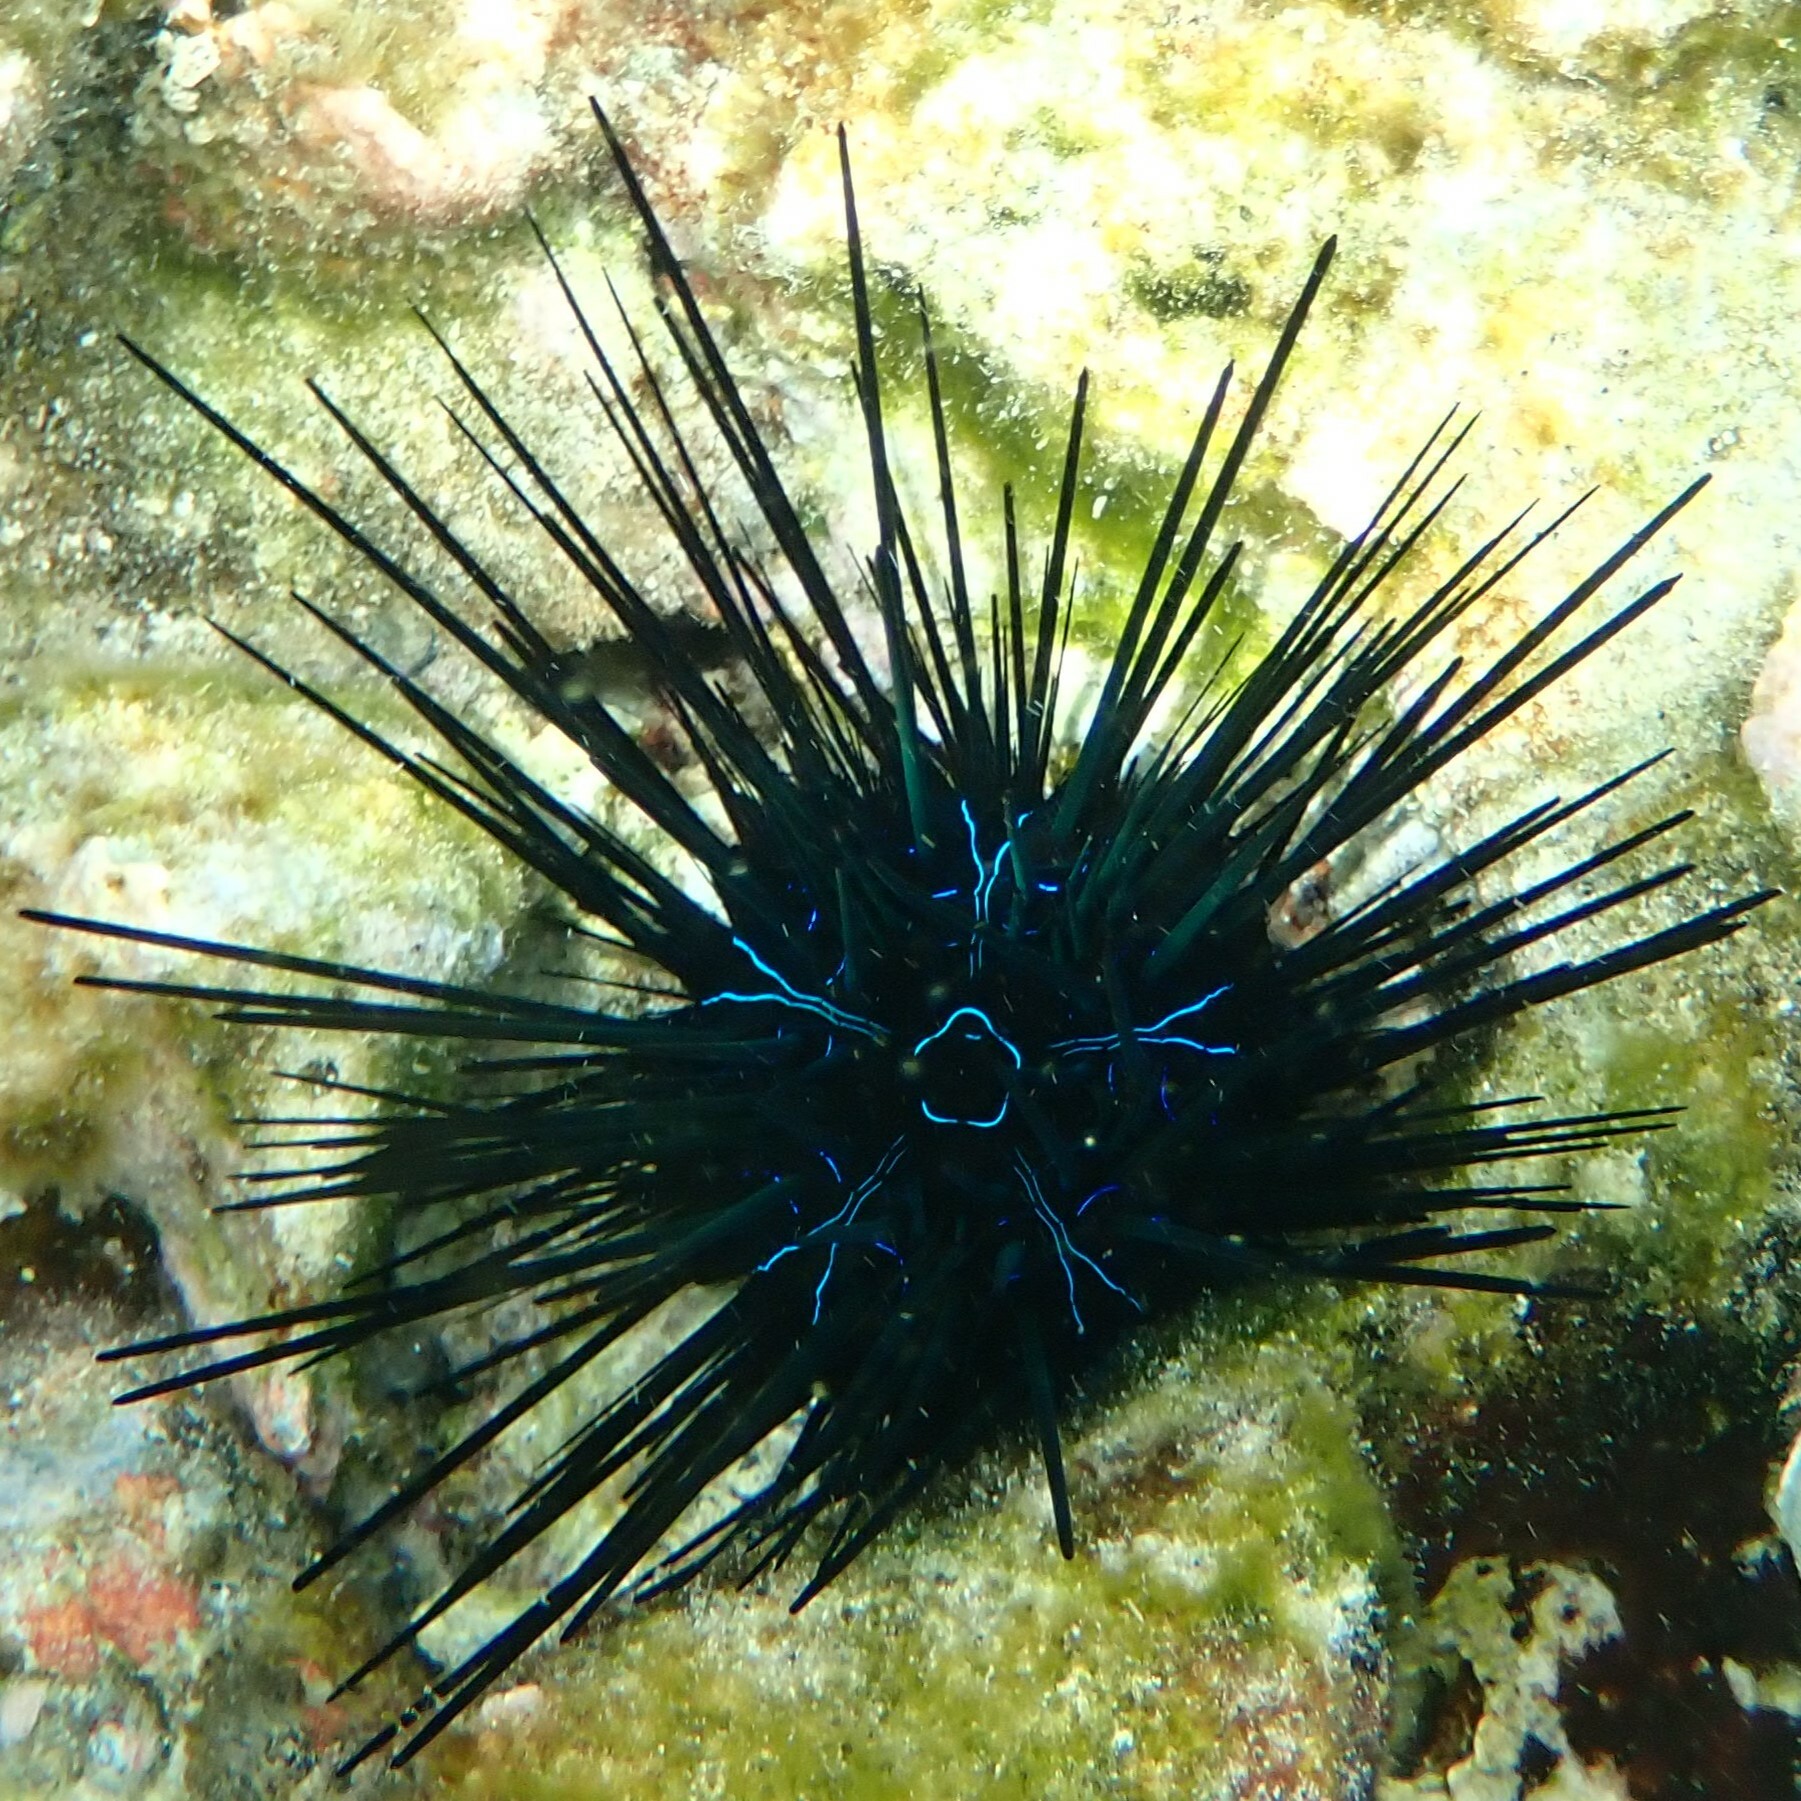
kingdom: Animalia
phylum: Echinodermata
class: Echinoidea
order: Diadematoida
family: Diadematidae
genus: Diadema
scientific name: Diadema savignyi
